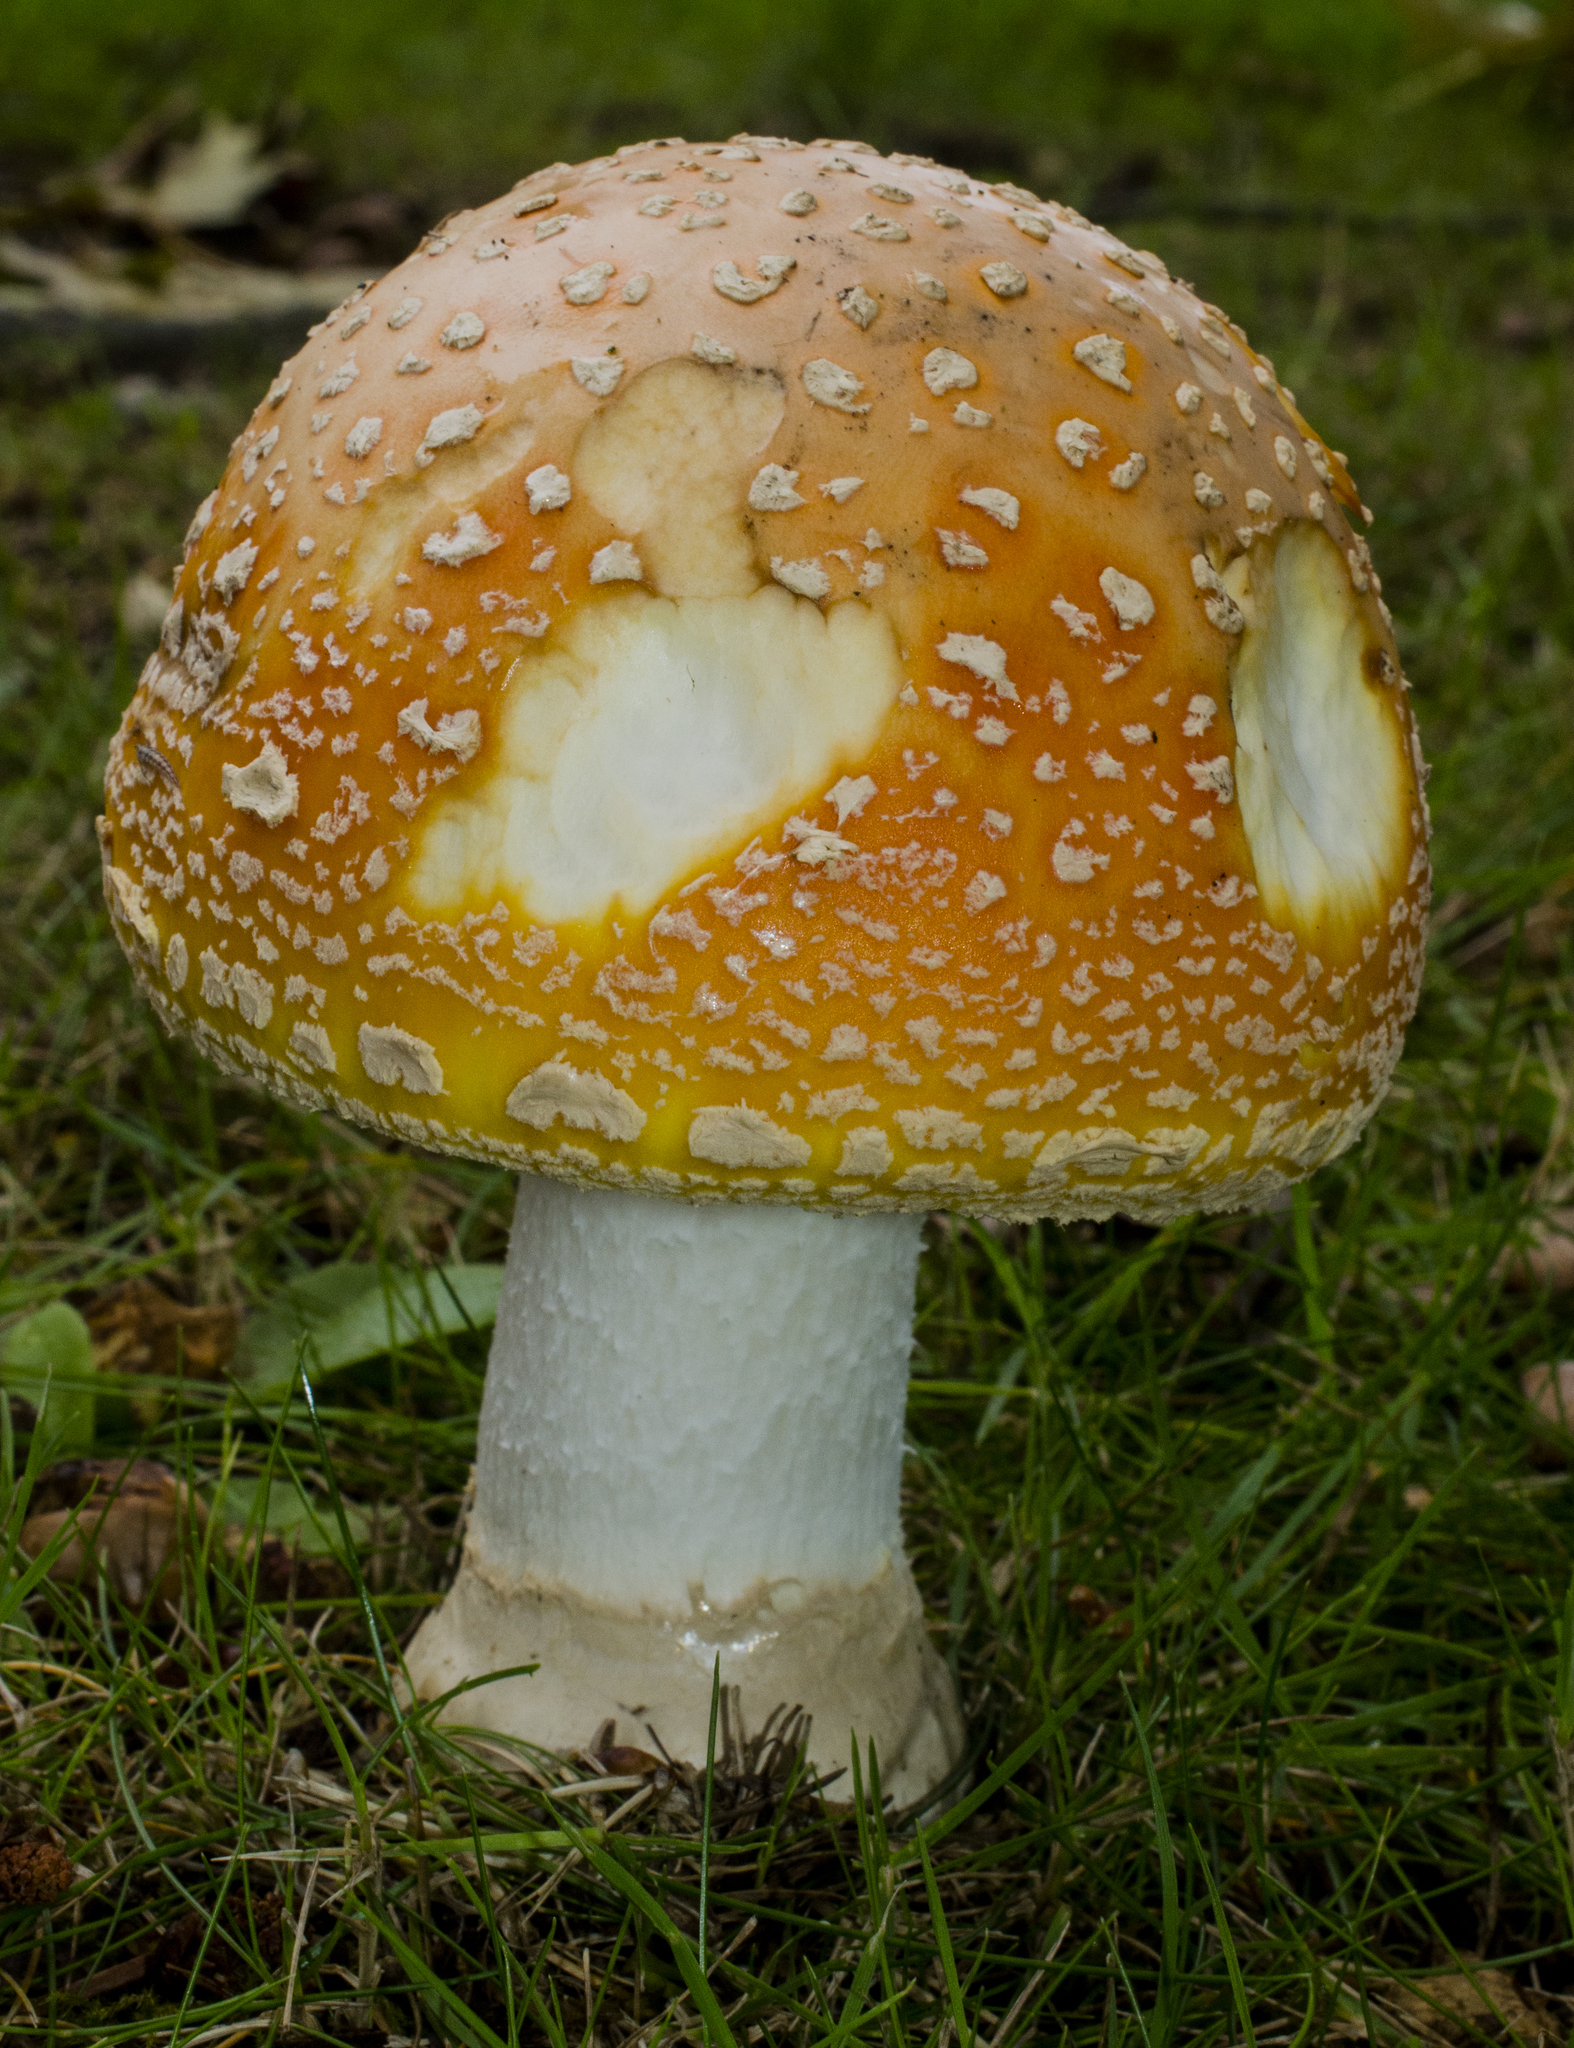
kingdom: Fungi
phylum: Basidiomycota
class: Agaricomycetes
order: Agaricales
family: Amanitaceae
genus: Amanita
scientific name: Amanita muscaria
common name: Fly agaric
